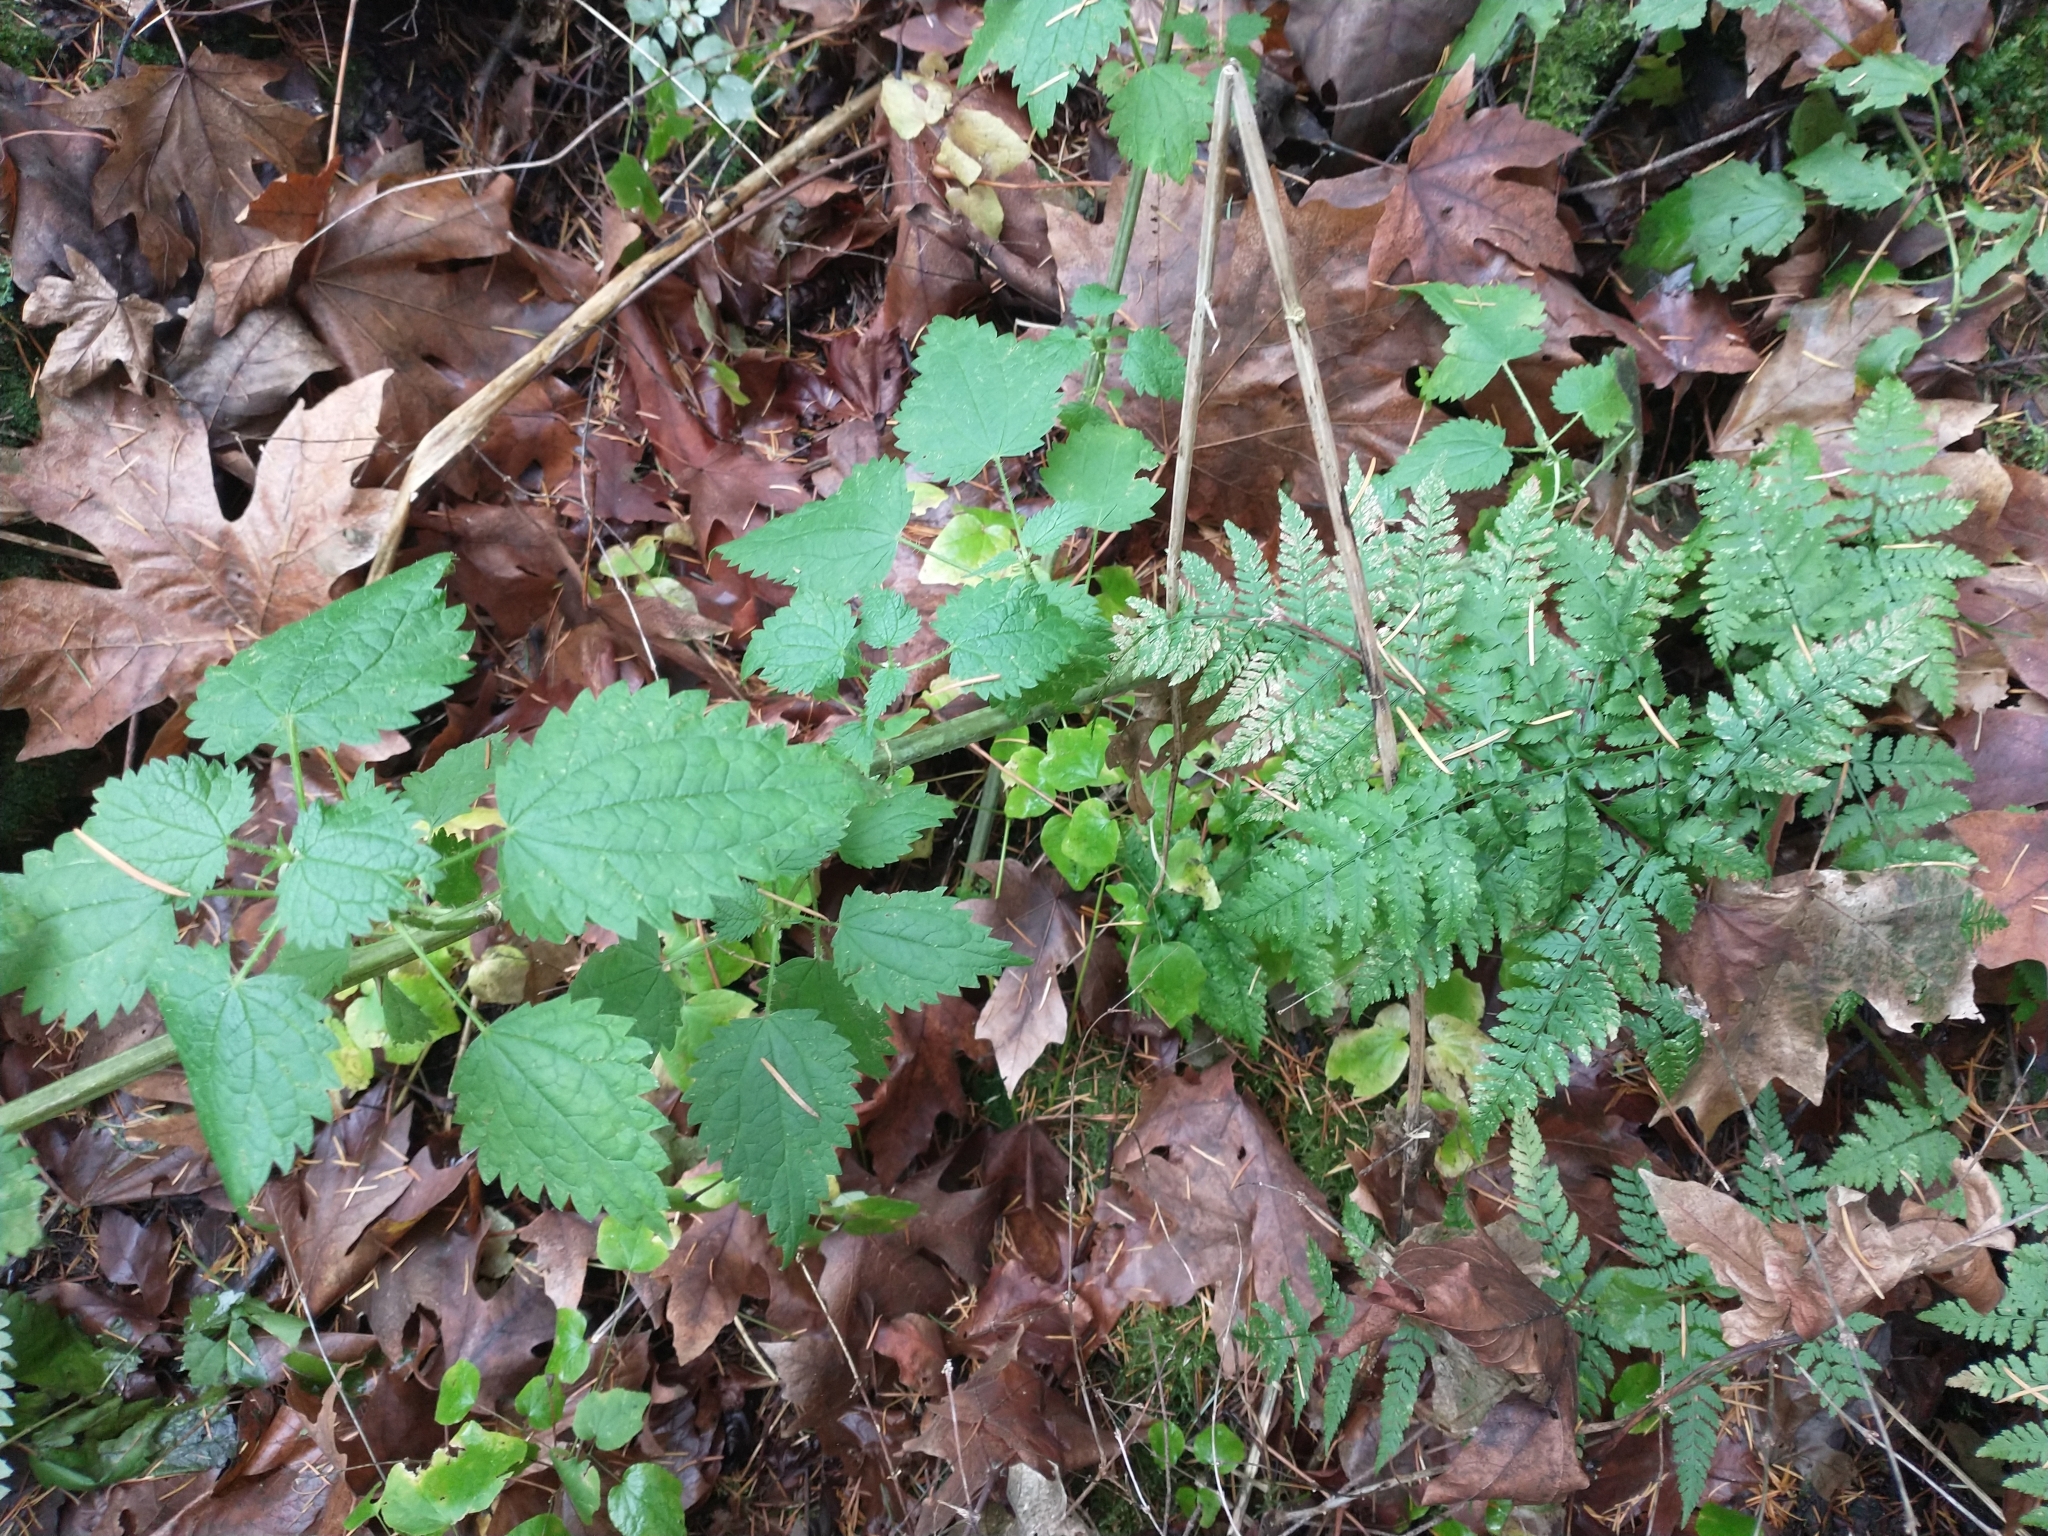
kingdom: Plantae
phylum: Tracheophyta
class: Magnoliopsida
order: Rosales
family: Urticaceae
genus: Urtica
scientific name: Urtica dioica
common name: Common nettle
